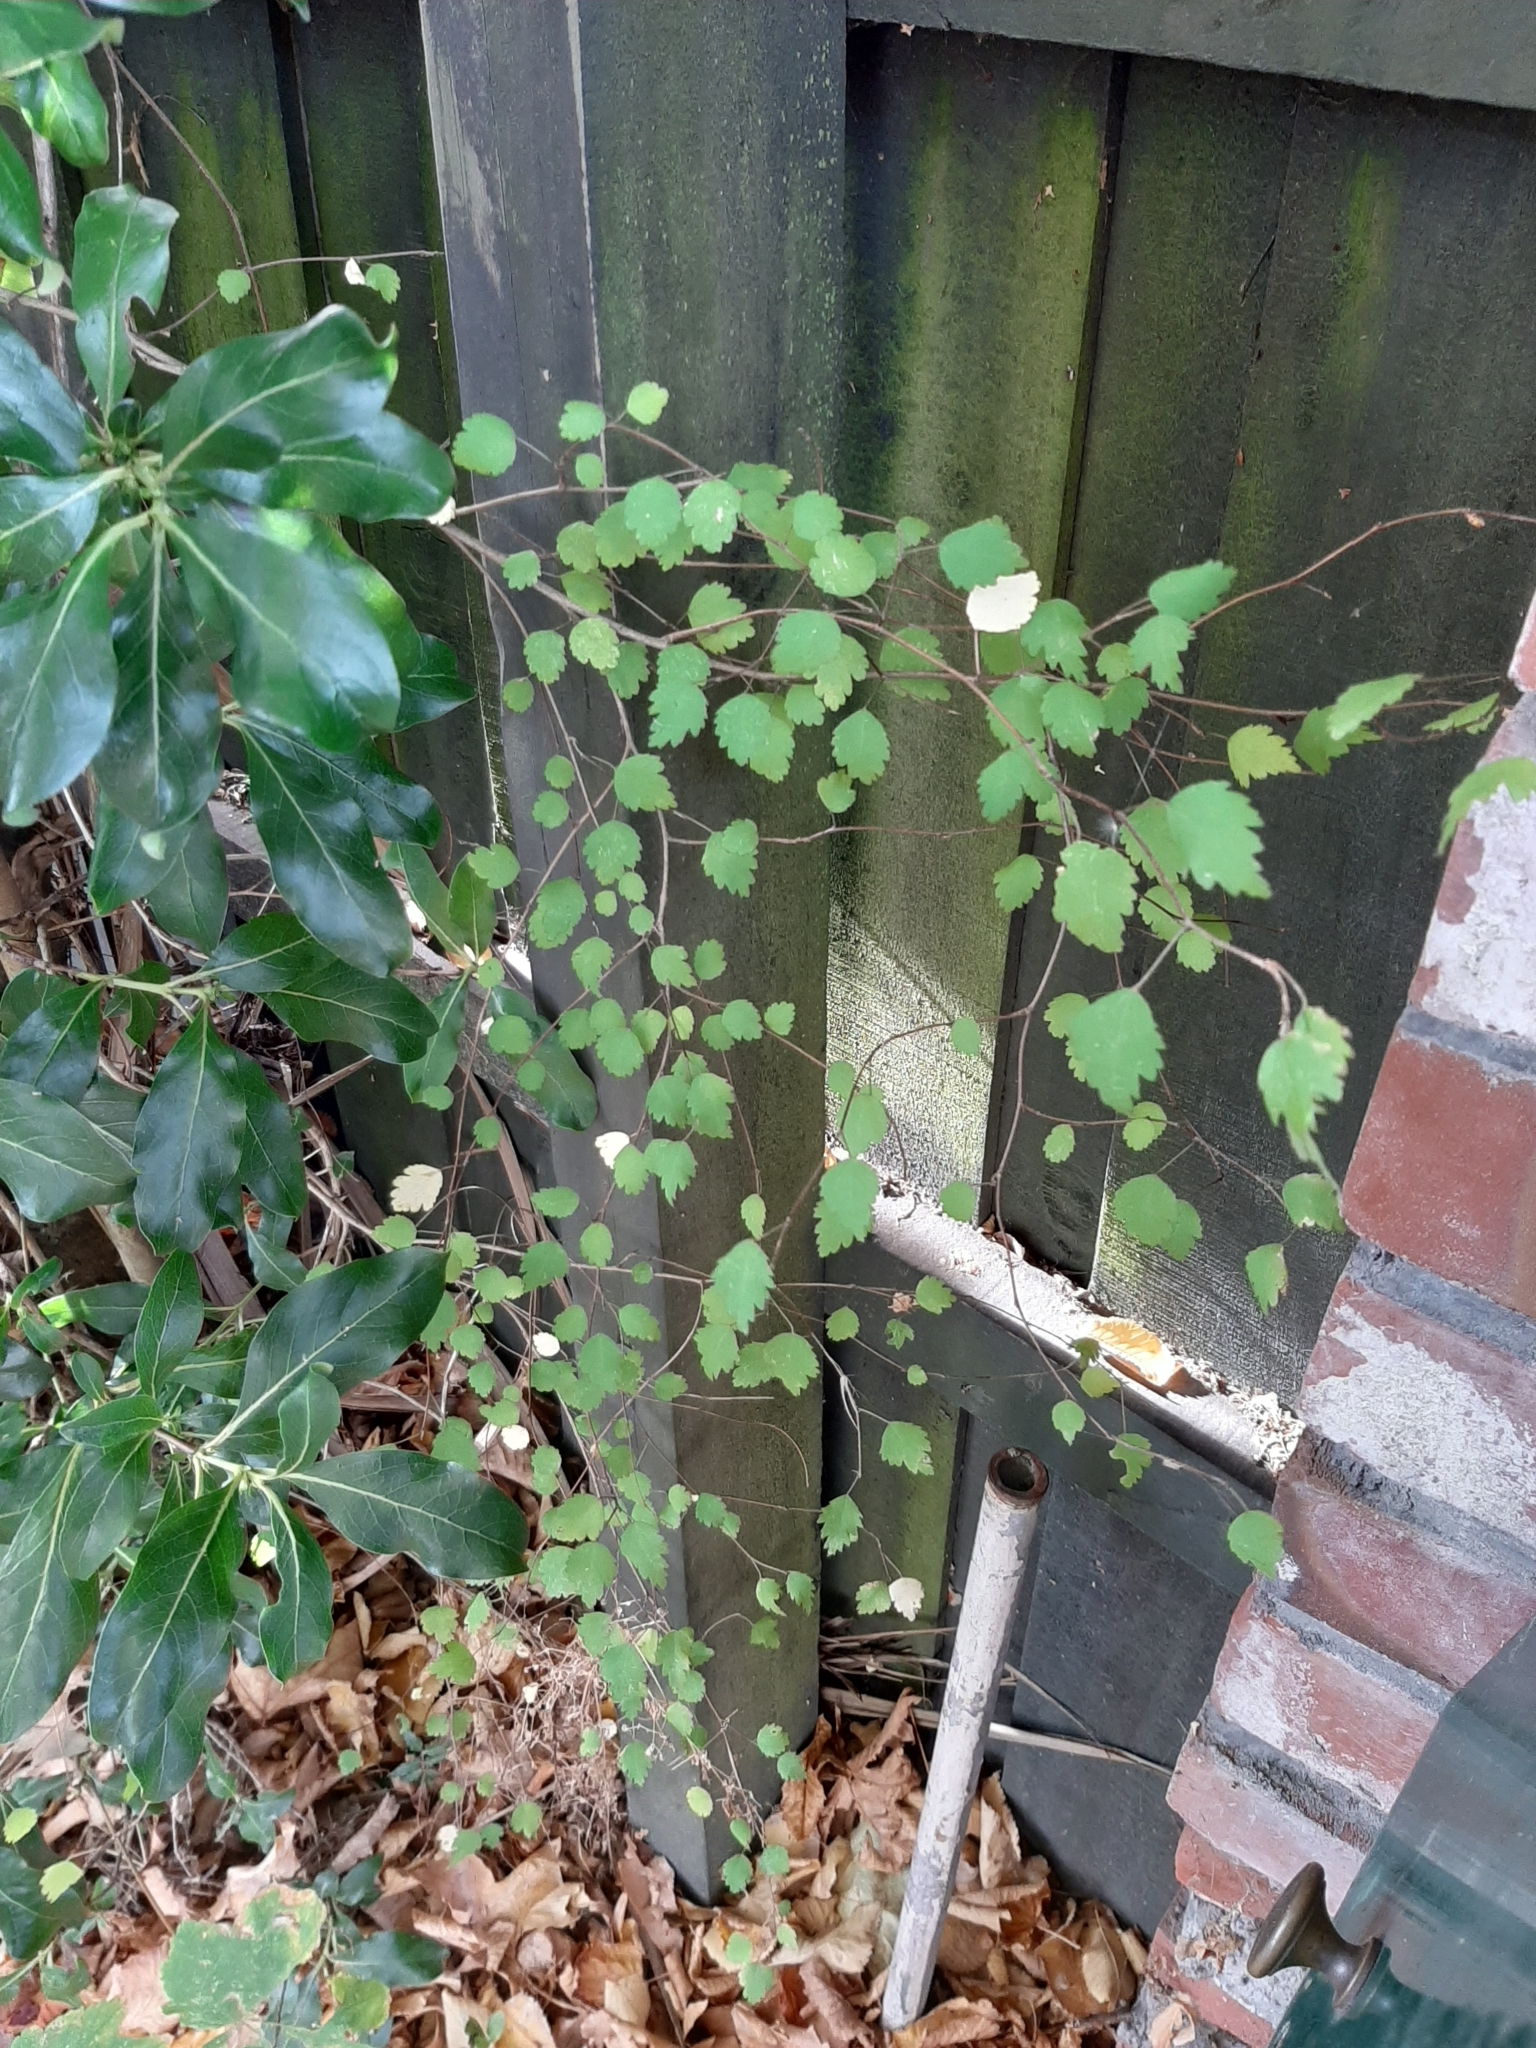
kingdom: Plantae
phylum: Tracheophyta
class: Magnoliopsida
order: Malvales
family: Malvaceae
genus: Plagianthus
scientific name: Plagianthus regius
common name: Manatu
